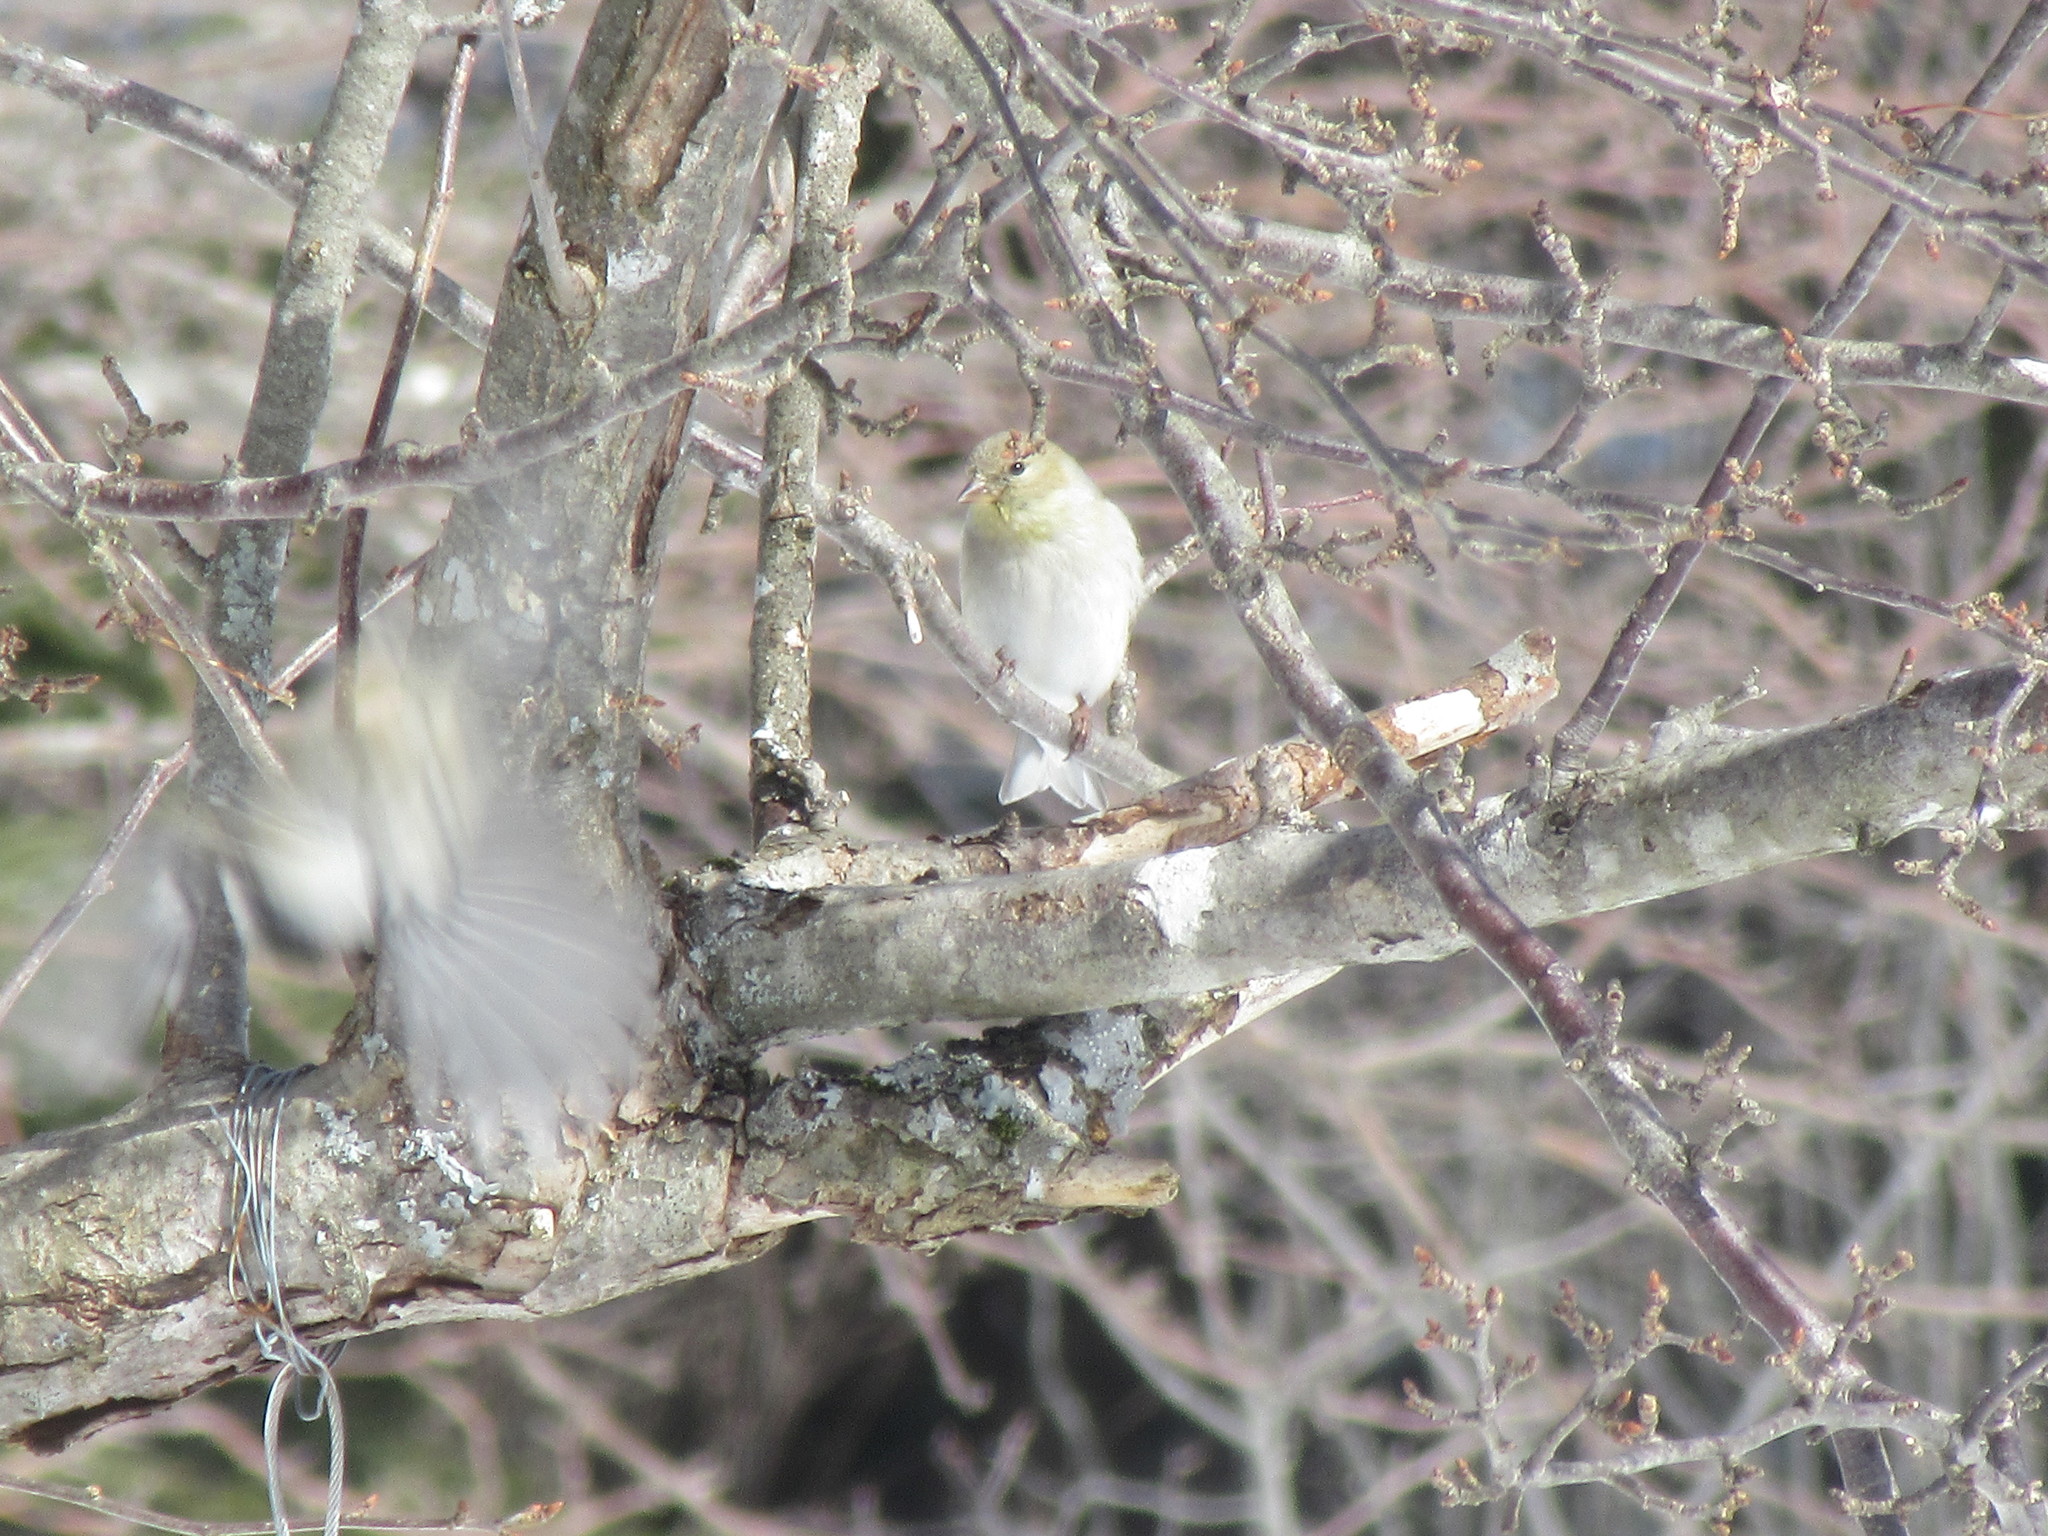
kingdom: Animalia
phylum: Chordata
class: Aves
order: Passeriformes
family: Fringillidae
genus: Spinus
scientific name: Spinus tristis
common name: American goldfinch
